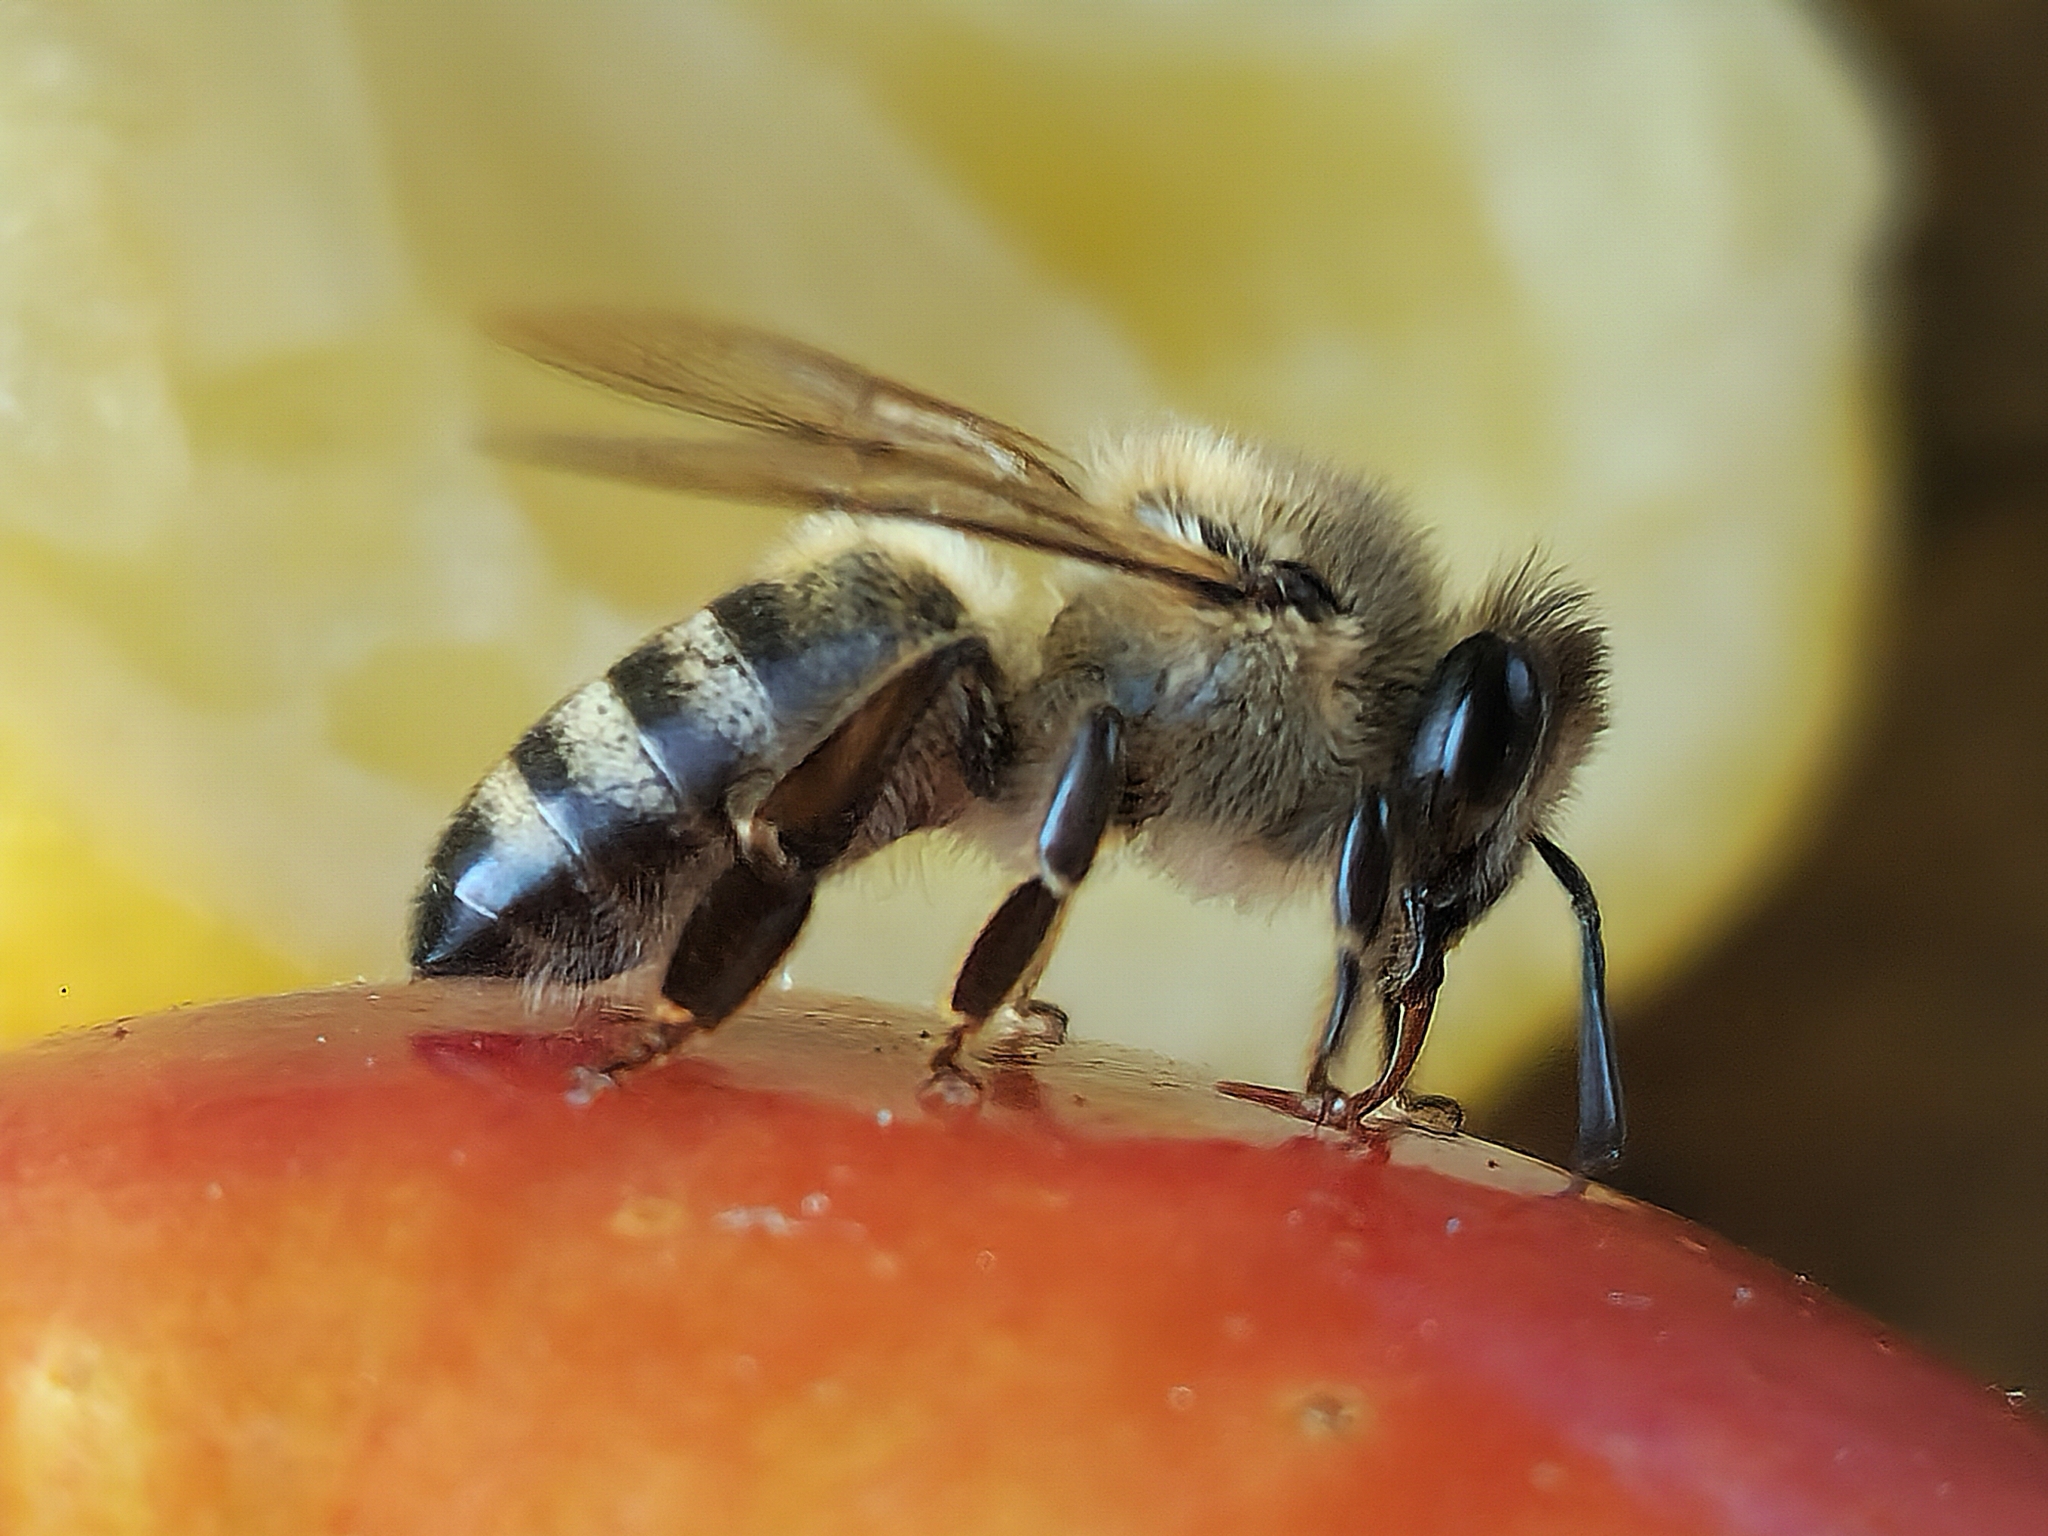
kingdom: Animalia
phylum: Arthropoda
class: Insecta
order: Hymenoptera
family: Apidae
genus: Apis
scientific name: Apis mellifera
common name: Honey bee
